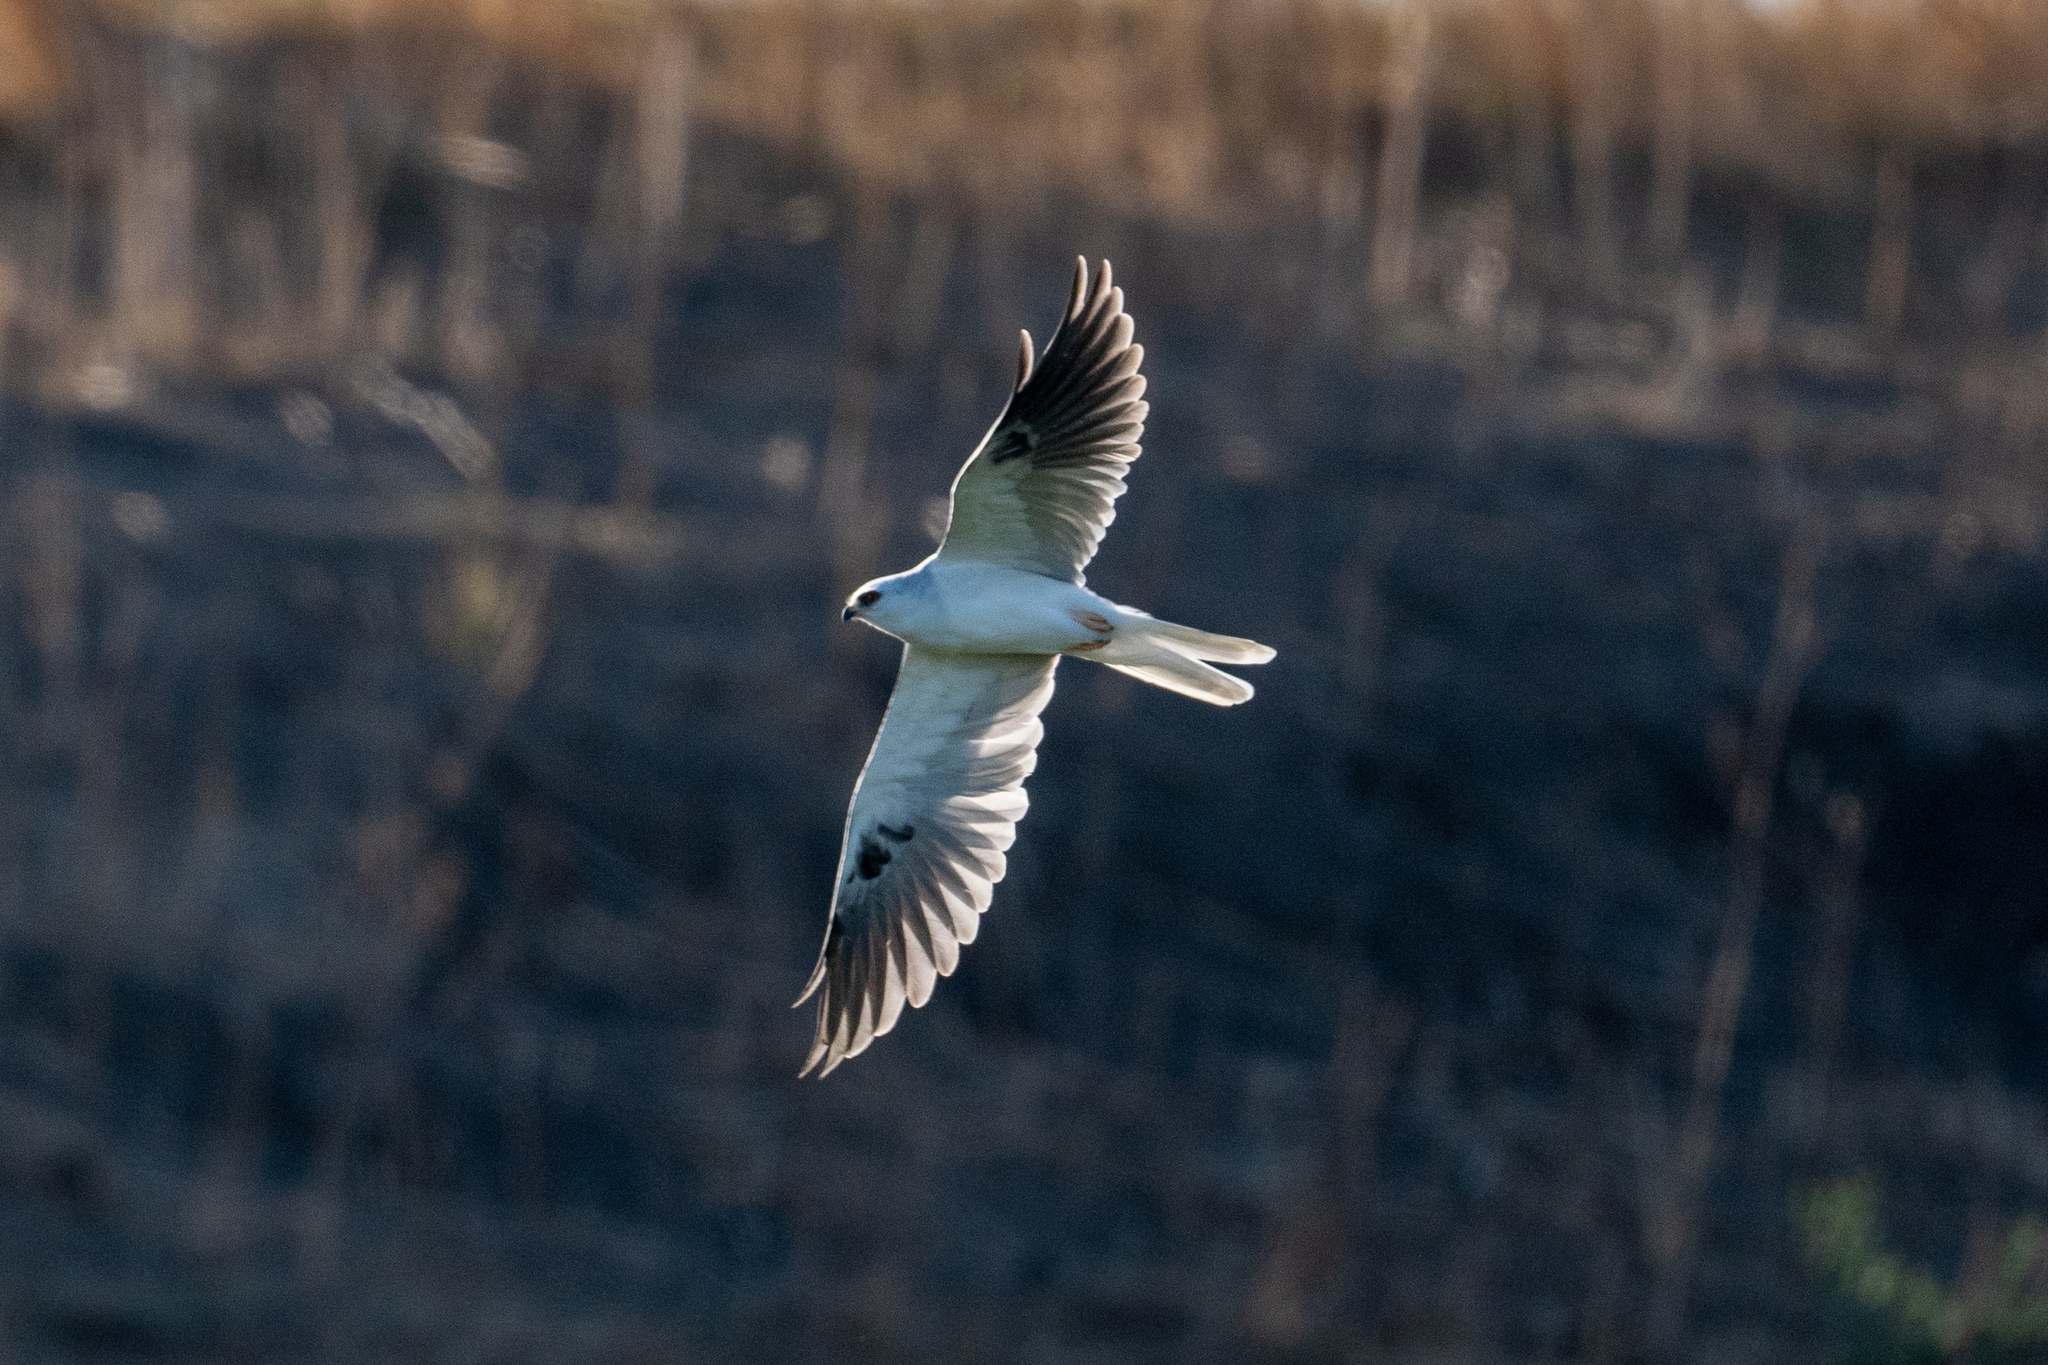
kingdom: Animalia
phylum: Chordata
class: Aves
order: Accipitriformes
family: Accipitridae
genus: Elanus
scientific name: Elanus leucurus
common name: White-tailed kite
